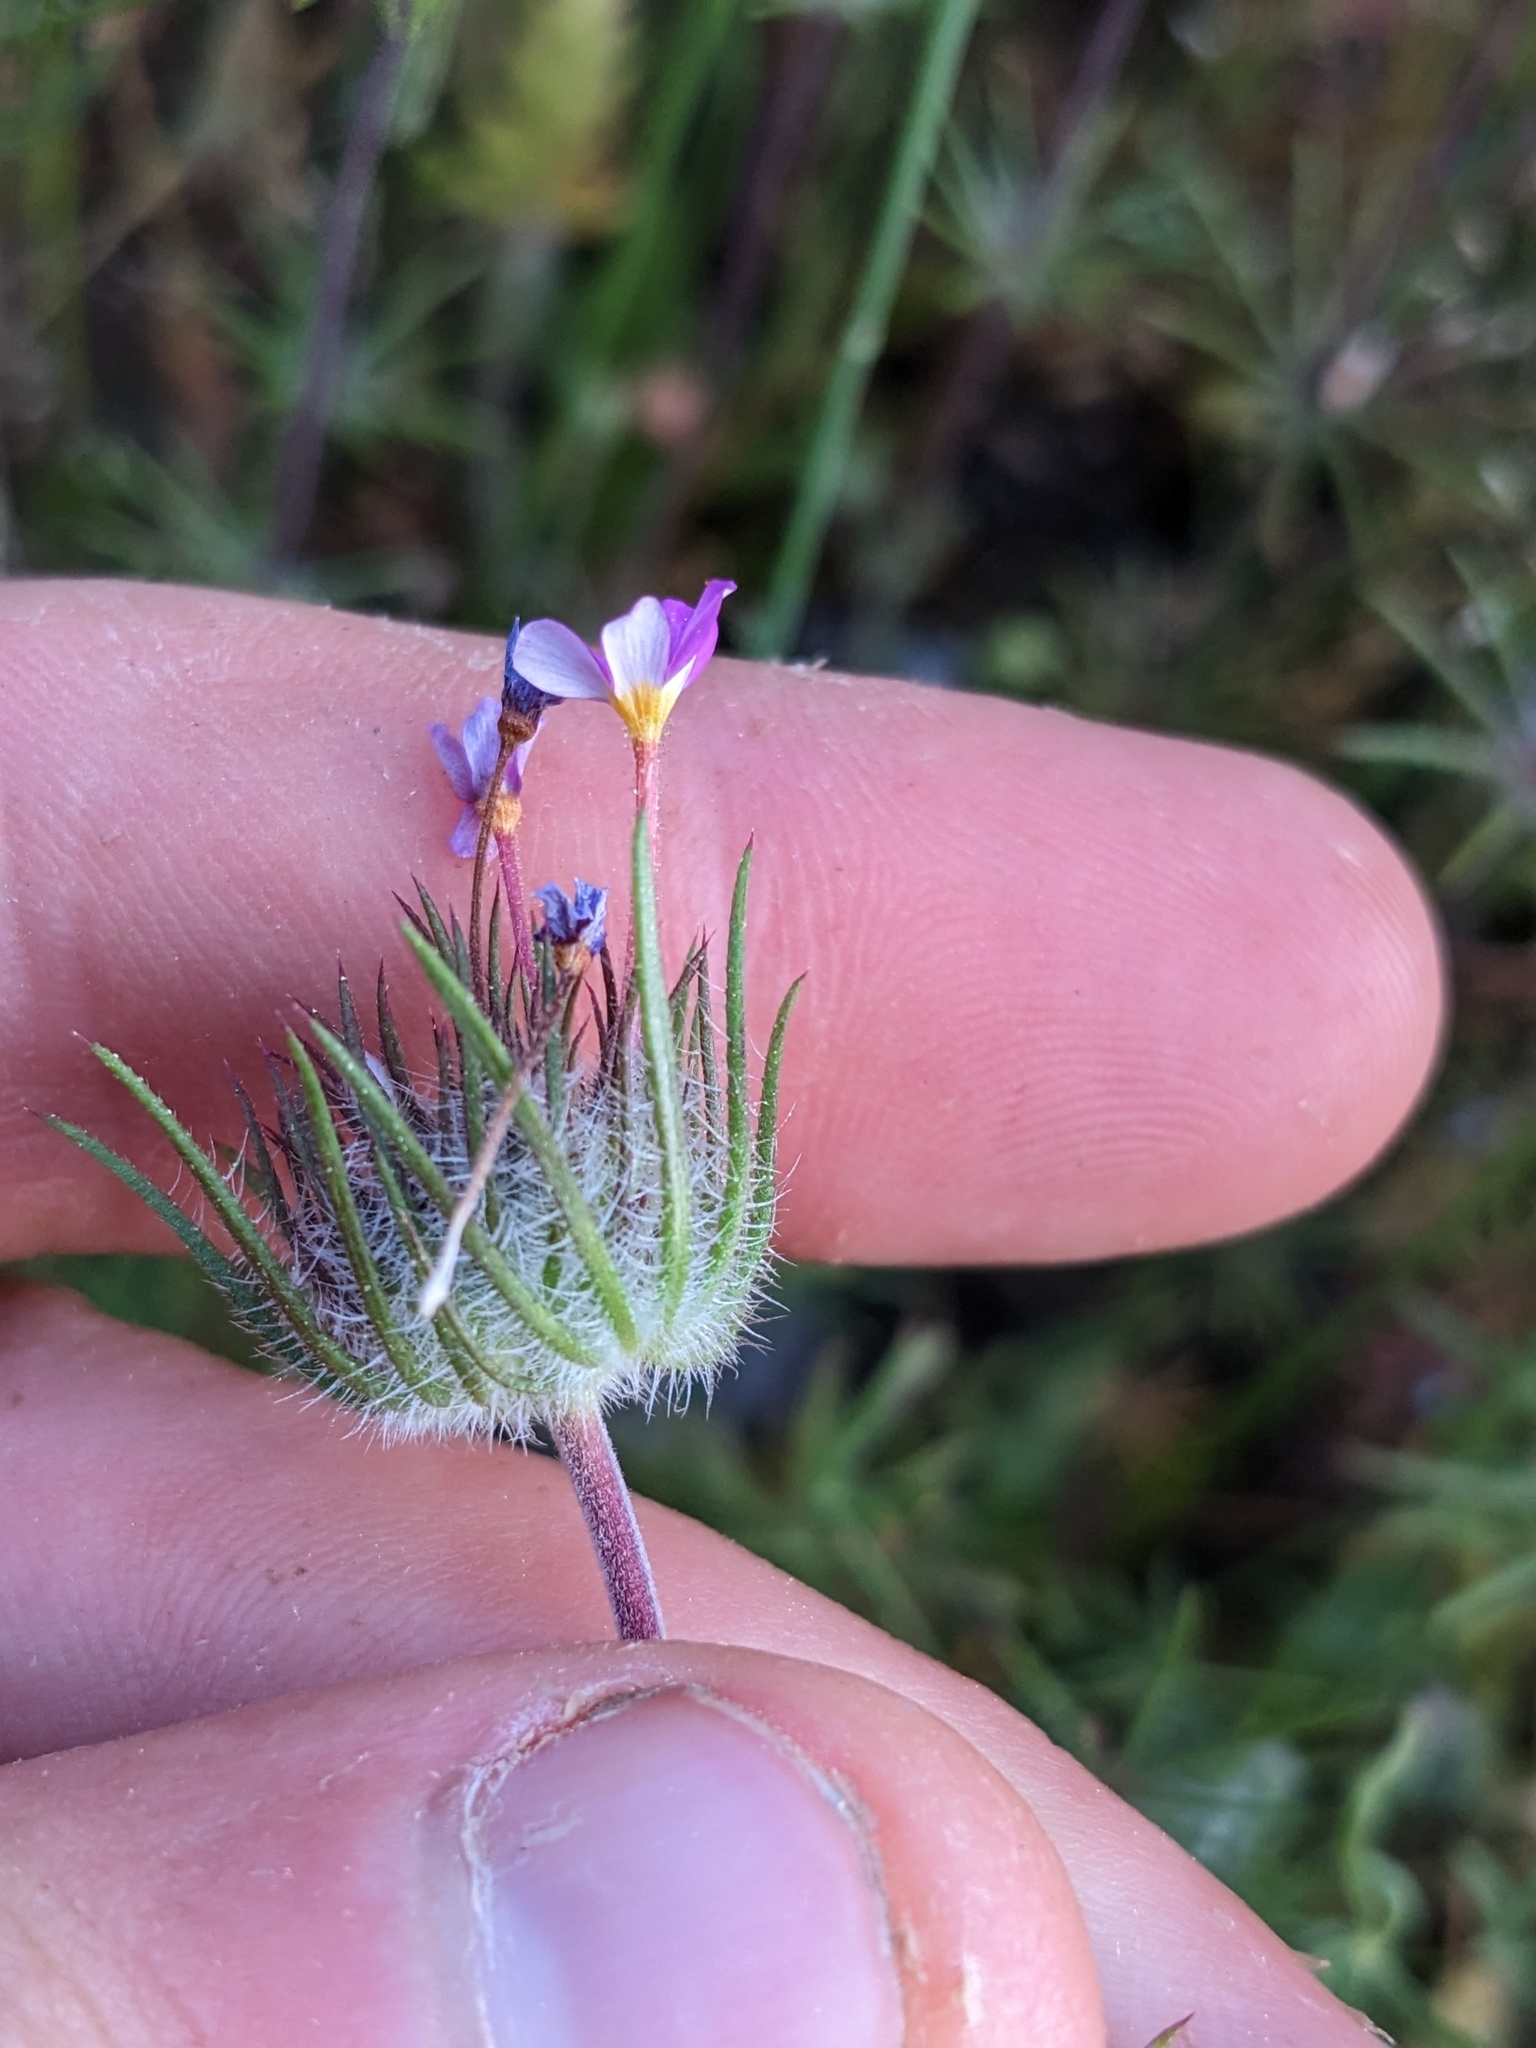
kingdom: Plantae
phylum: Tracheophyta
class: Magnoliopsida
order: Ericales
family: Polemoniaceae
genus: Leptosiphon
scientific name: Leptosiphon ciliatus
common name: Whiskerbrush
